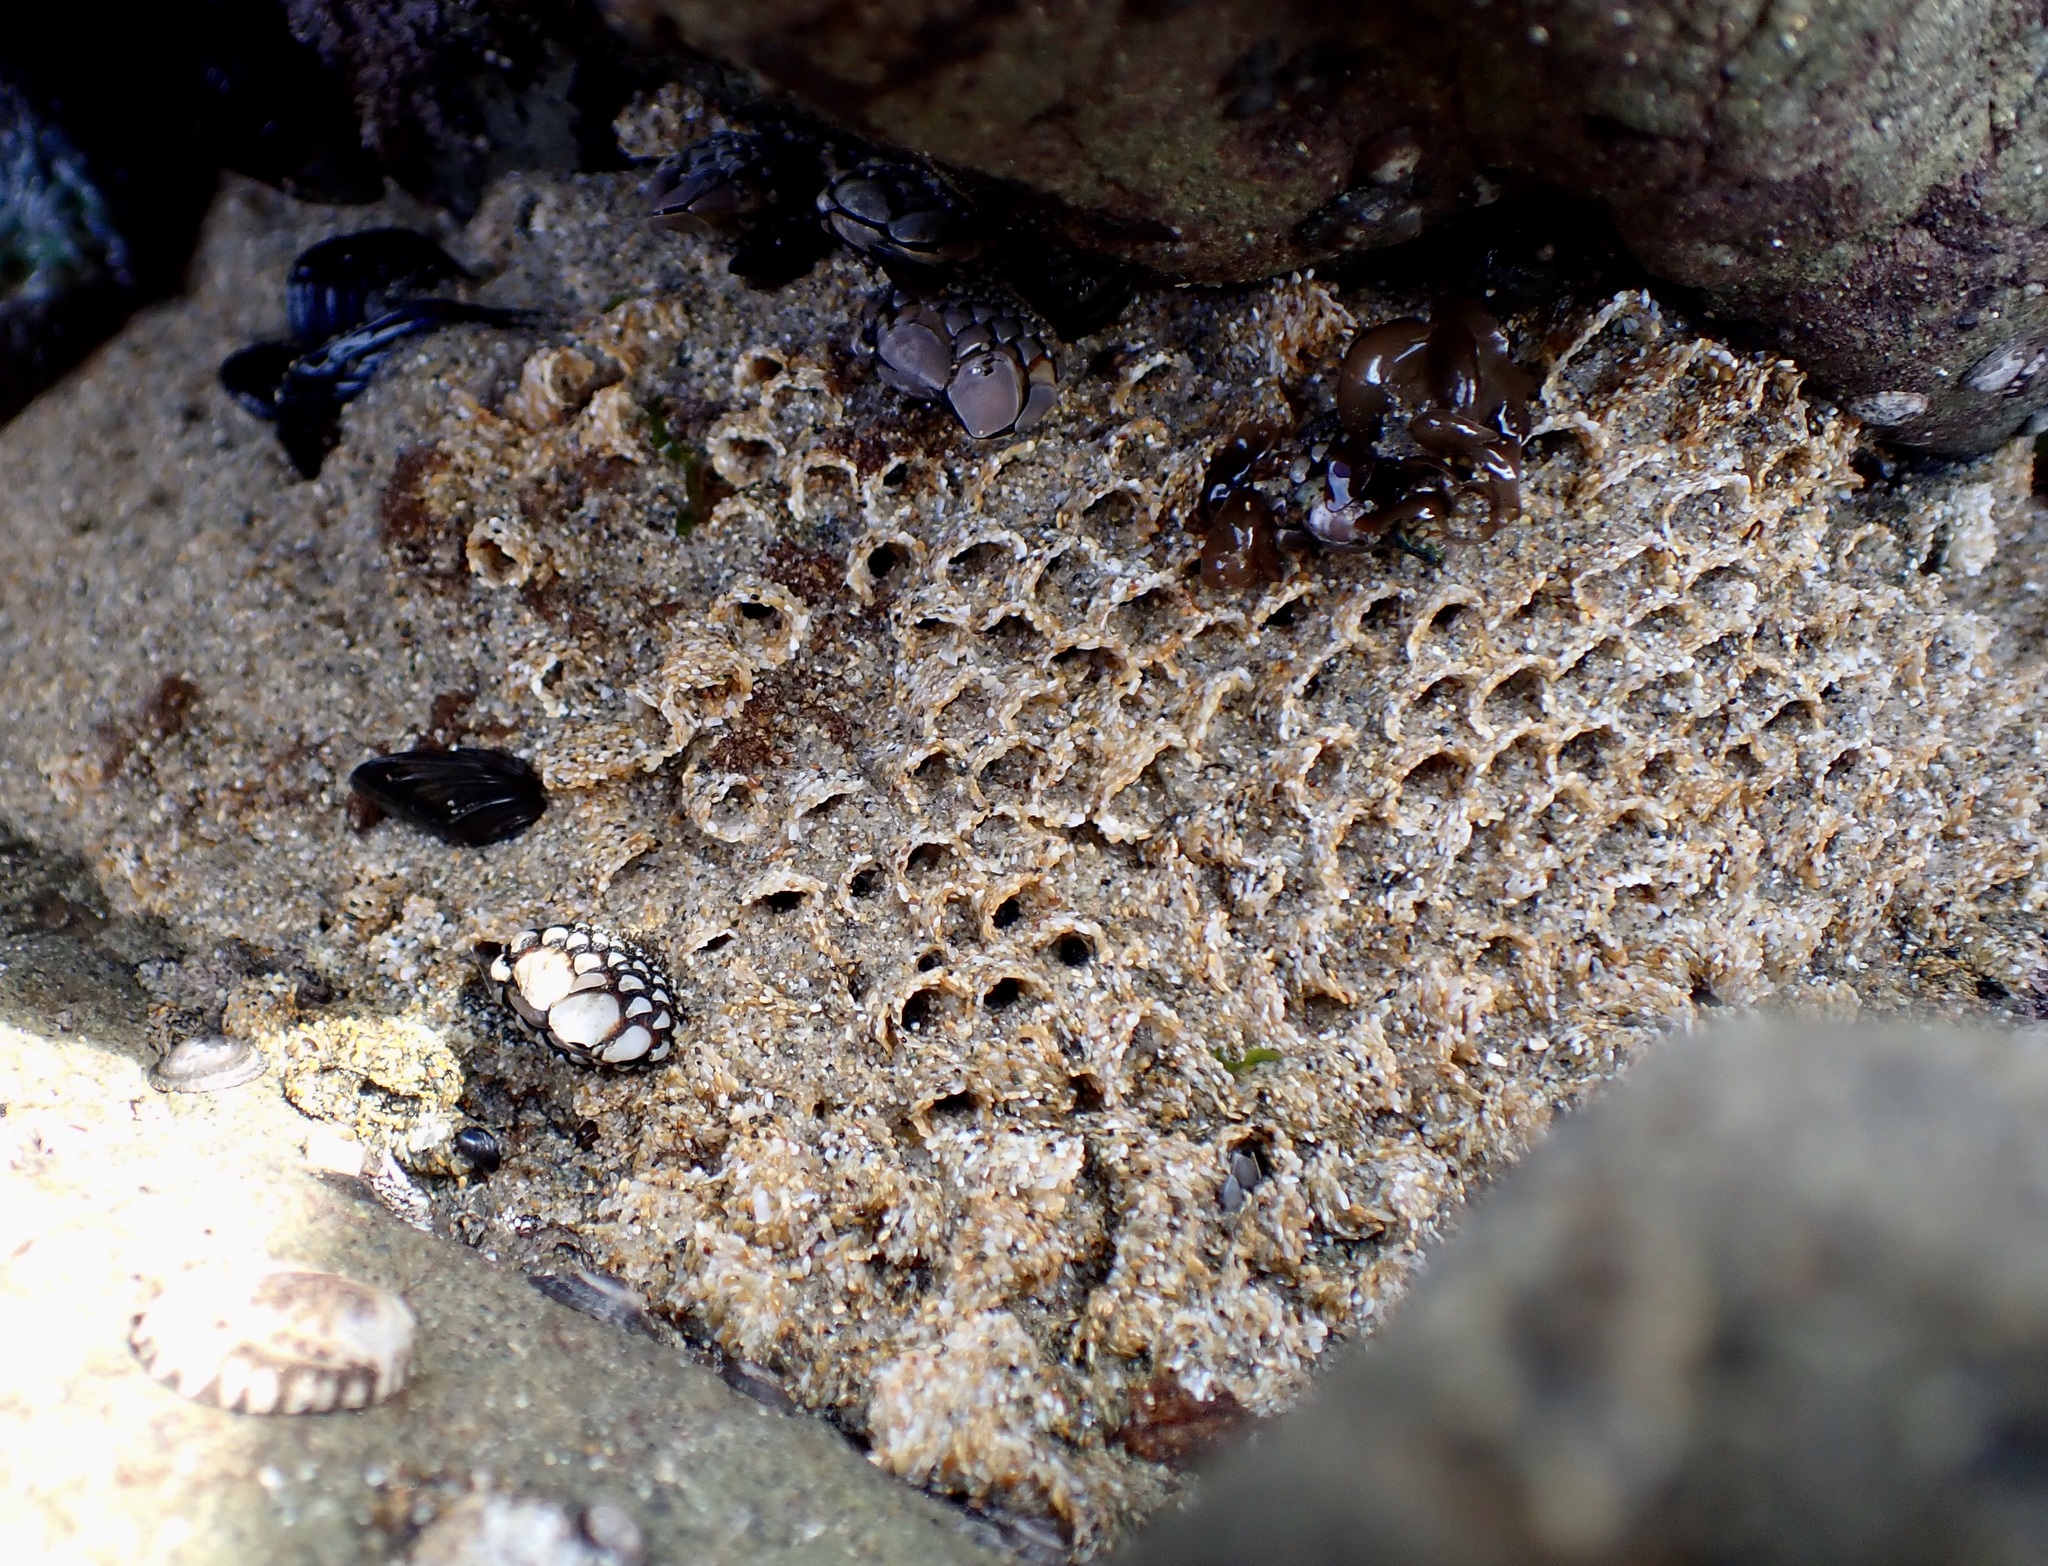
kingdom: Animalia
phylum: Annelida
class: Polychaeta
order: Sabellida
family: Sabellariidae
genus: Phragmatopoma
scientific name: Phragmatopoma californica
